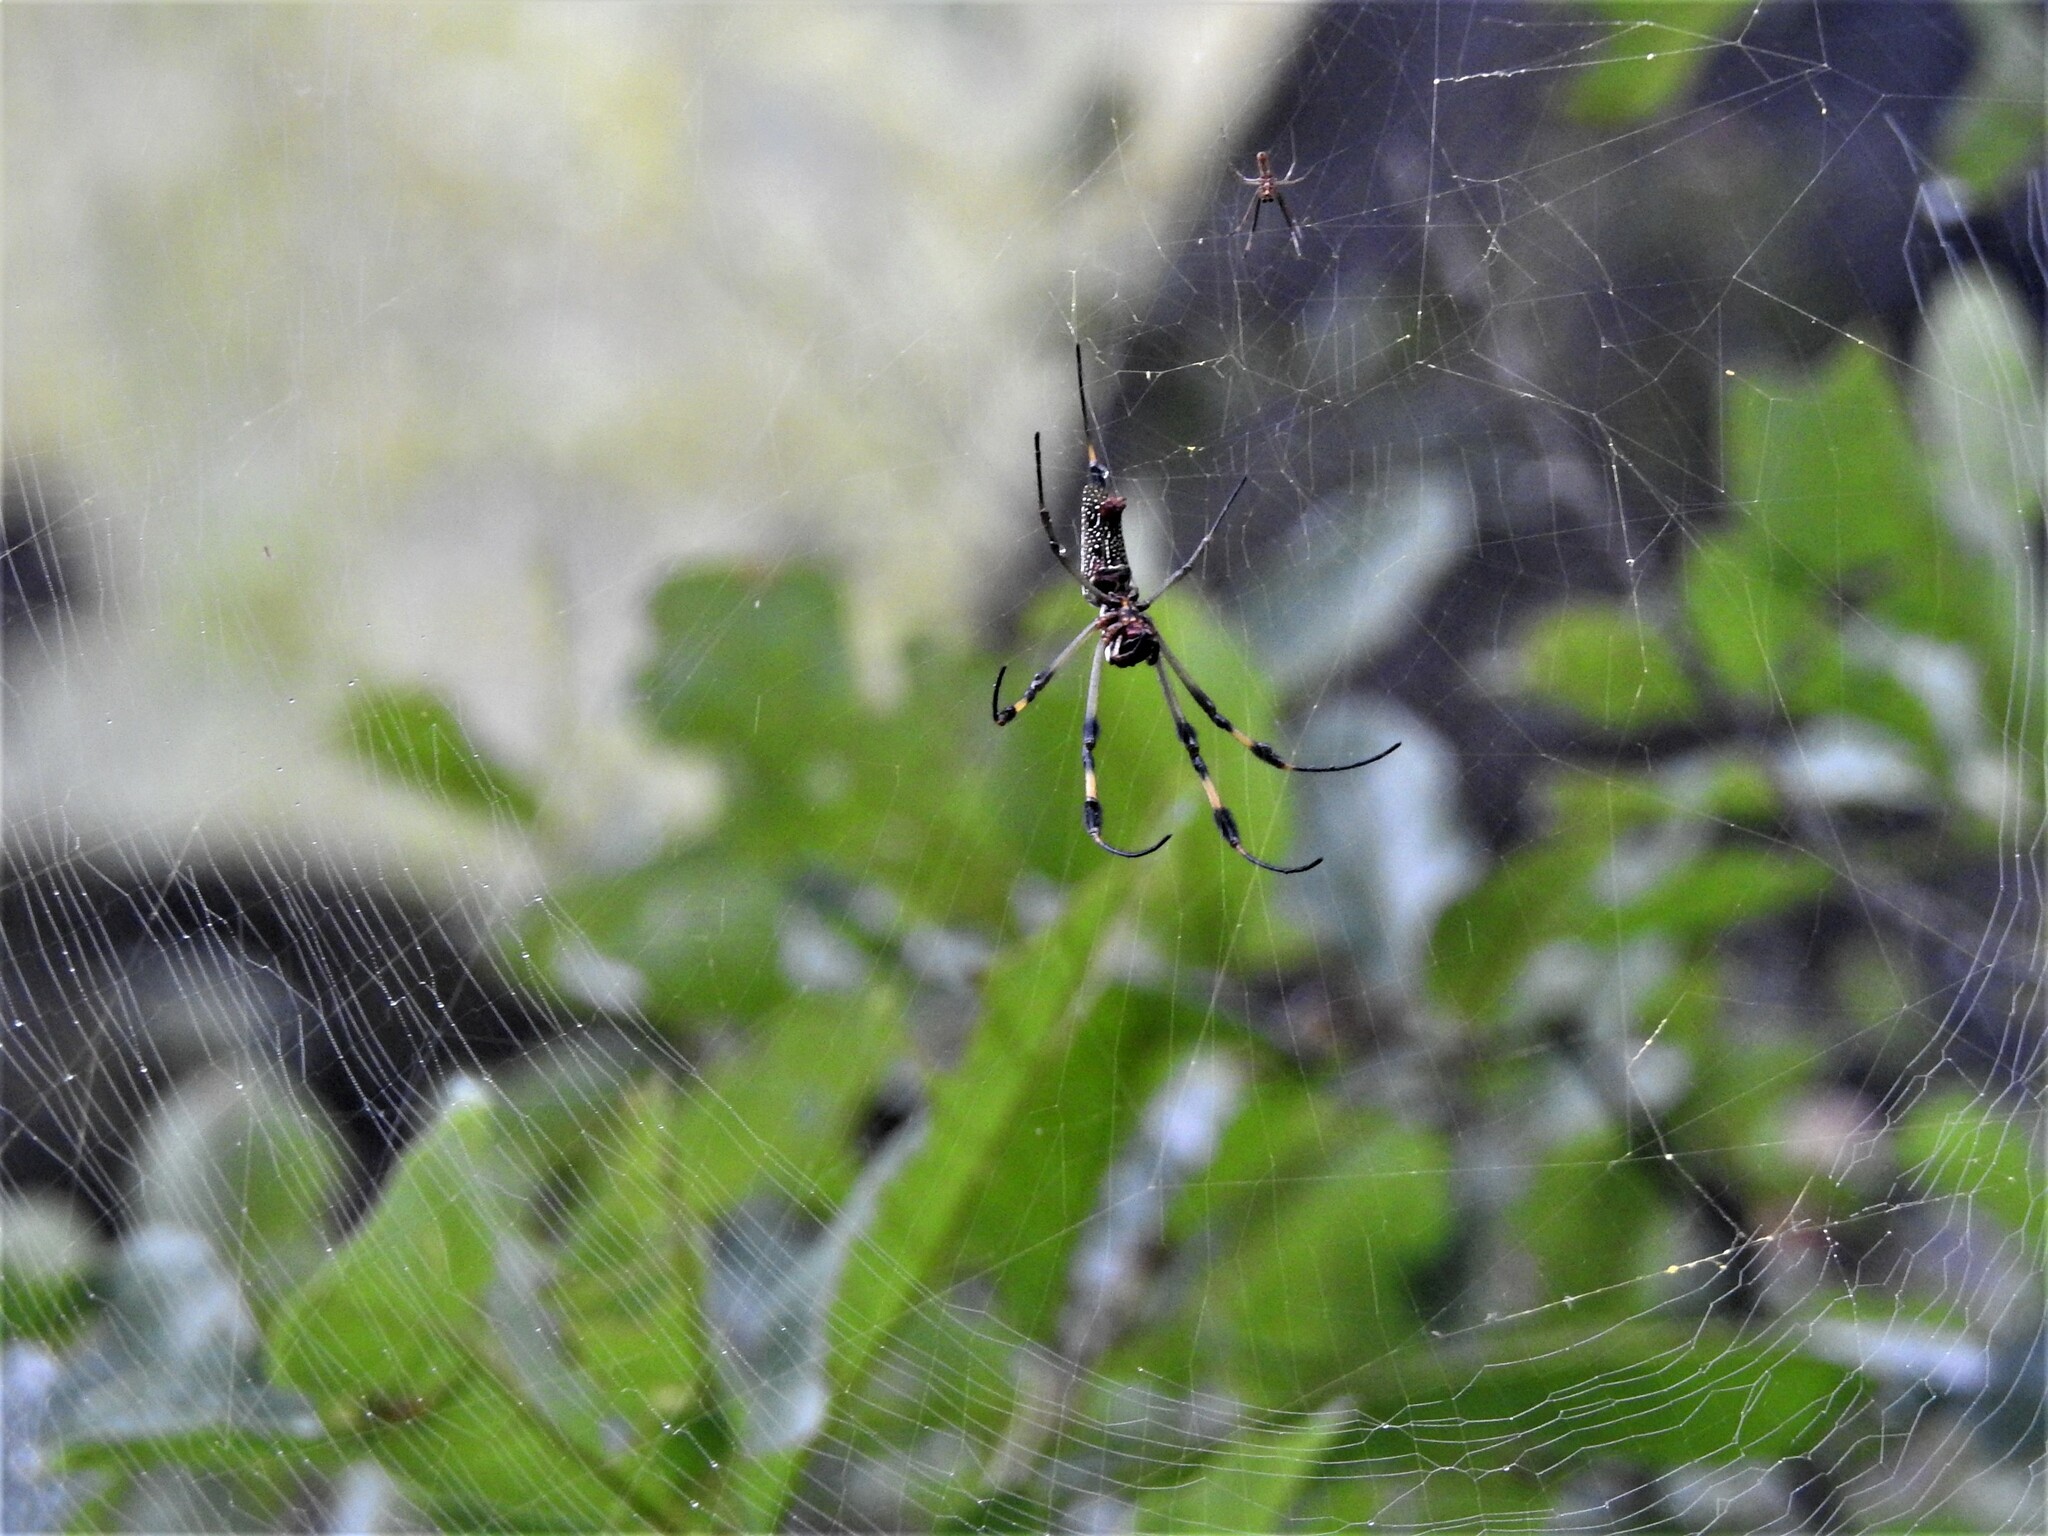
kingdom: Animalia
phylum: Arthropoda
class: Arachnida
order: Araneae
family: Araneidae
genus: Trichonephila
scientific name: Trichonephila clavipes
